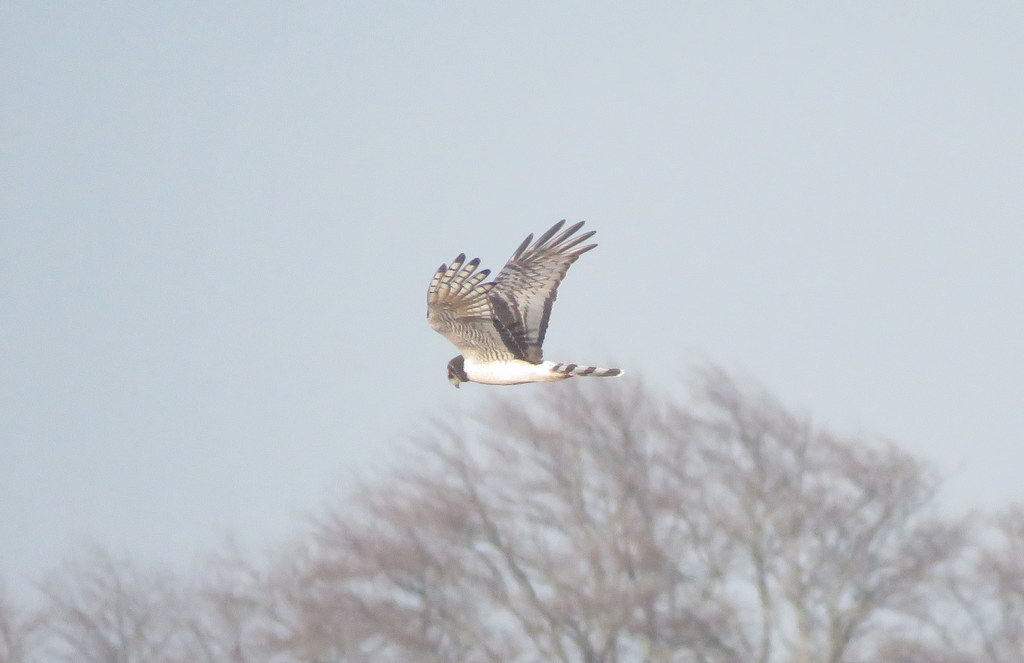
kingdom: Animalia
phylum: Chordata
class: Aves
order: Accipitriformes
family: Accipitridae
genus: Circus
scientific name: Circus buffoni
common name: Long-winged harrier
